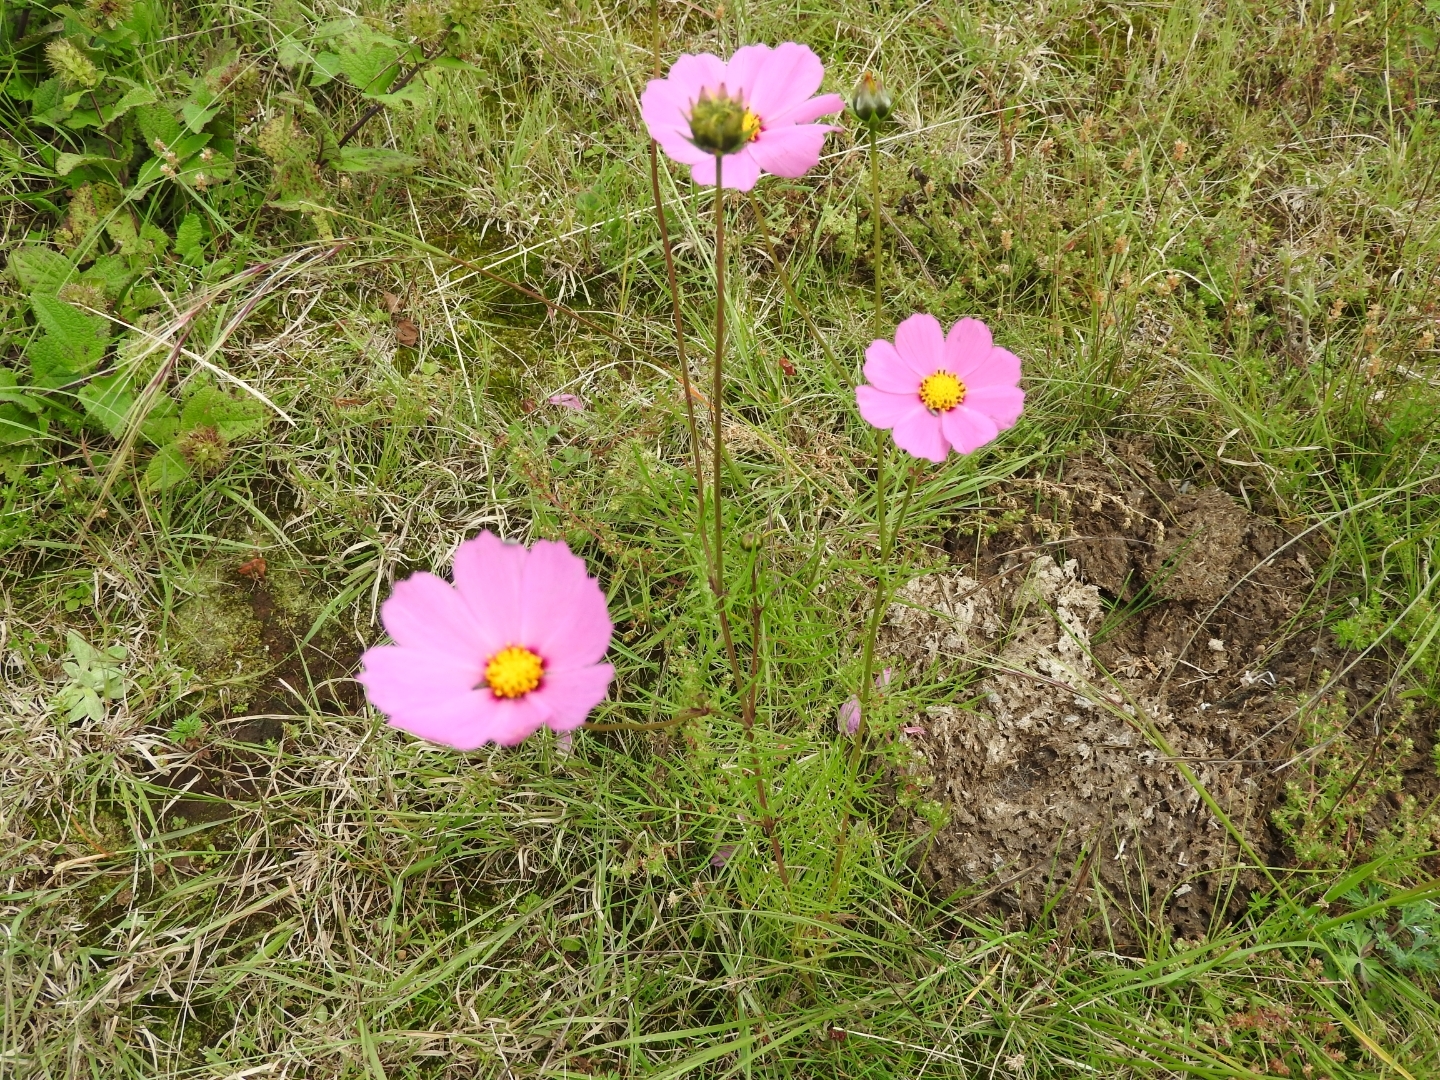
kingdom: Plantae
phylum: Tracheophyta
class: Magnoliopsida
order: Asterales
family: Asteraceae
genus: Cosmos
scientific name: Cosmos bipinnatus
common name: Garden cosmos
